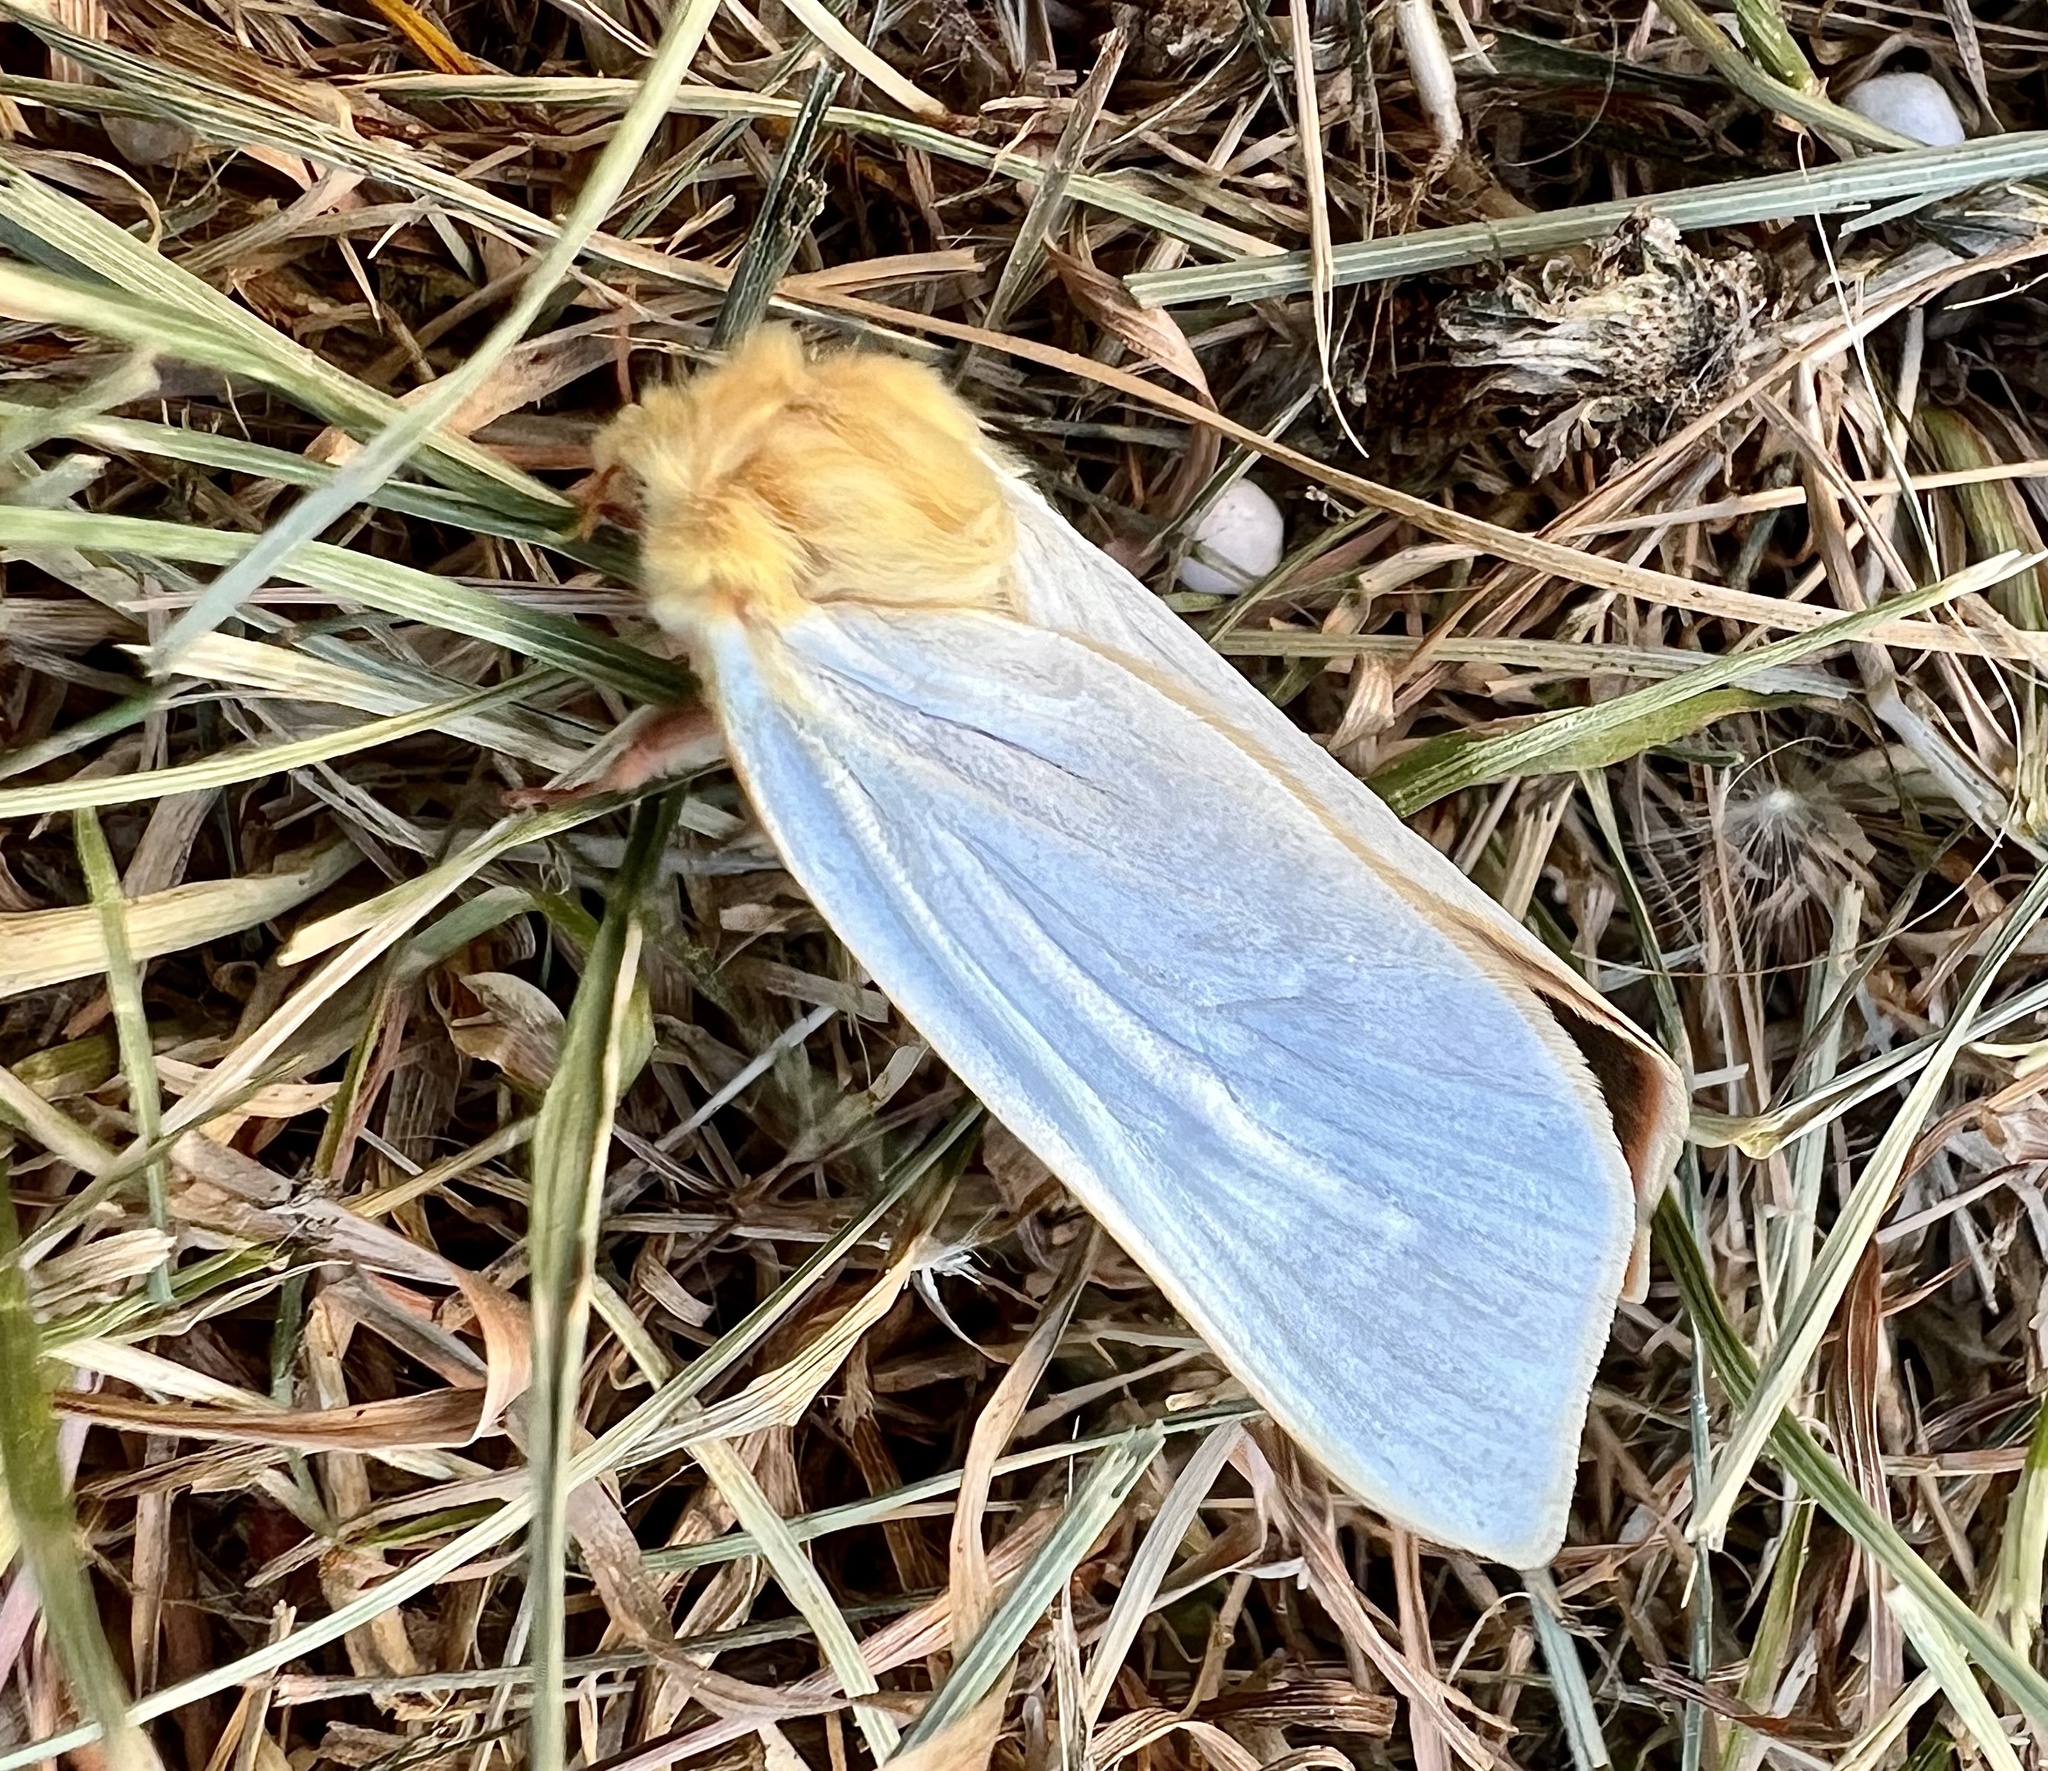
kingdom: Animalia
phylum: Arthropoda
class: Insecta
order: Lepidoptera
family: Hepialidae
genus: Hepialus
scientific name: Hepialus humuli
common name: Ghost moth
